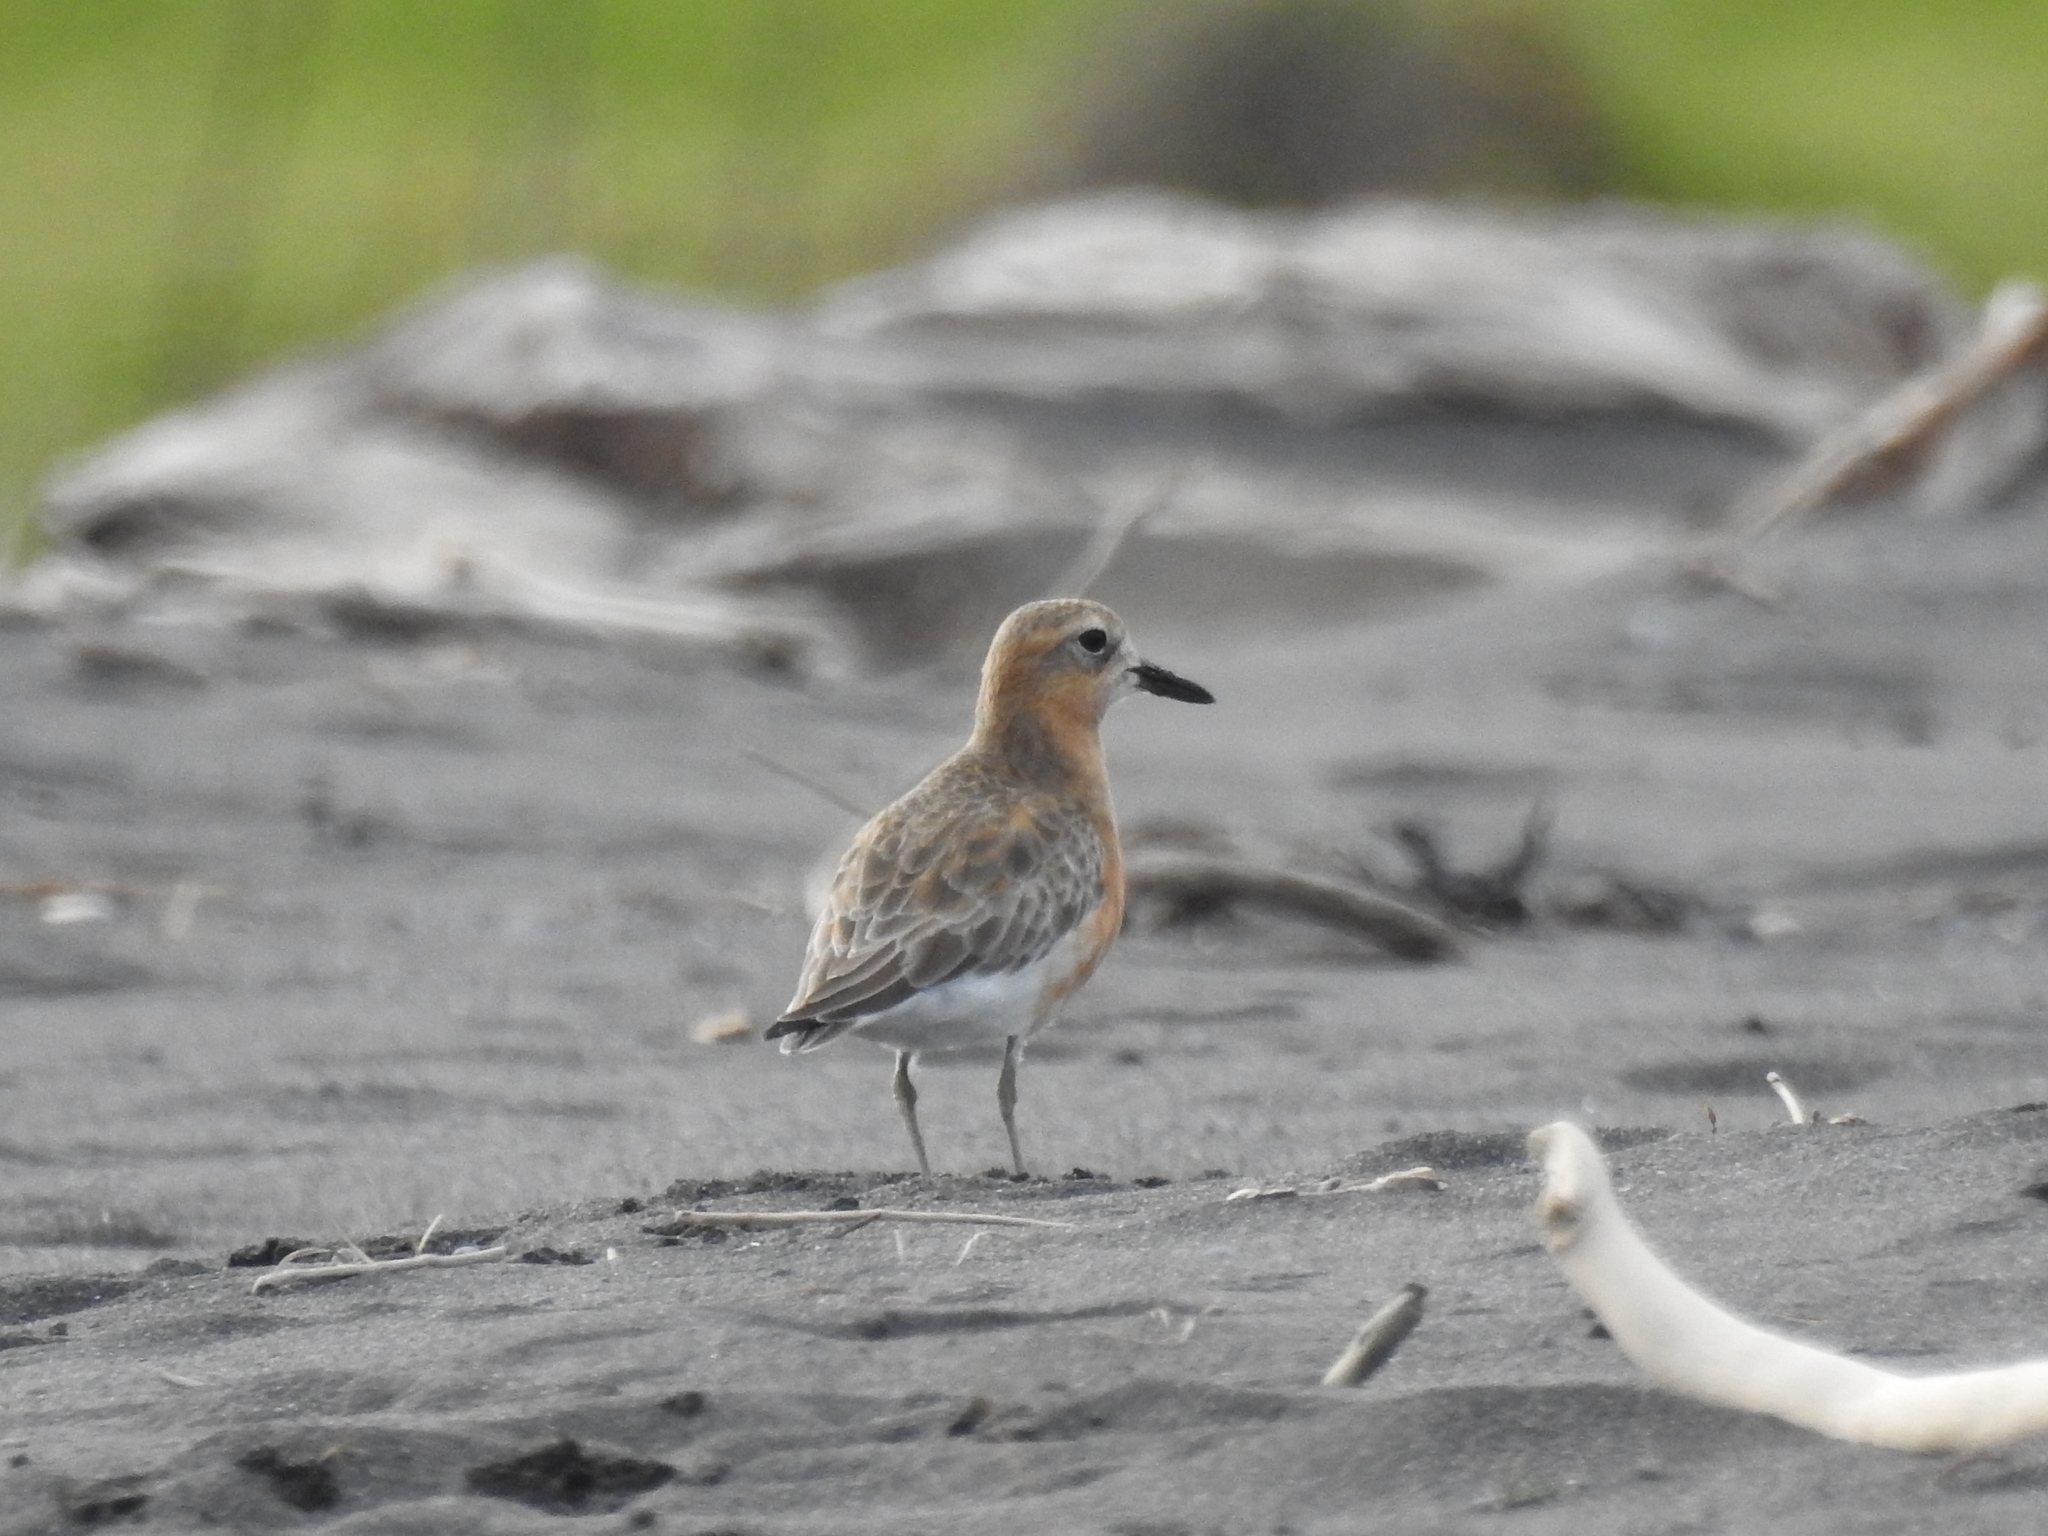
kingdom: Animalia
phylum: Chordata
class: Aves
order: Charadriiformes
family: Charadriidae
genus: Anarhynchus
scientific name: Anarhynchus
